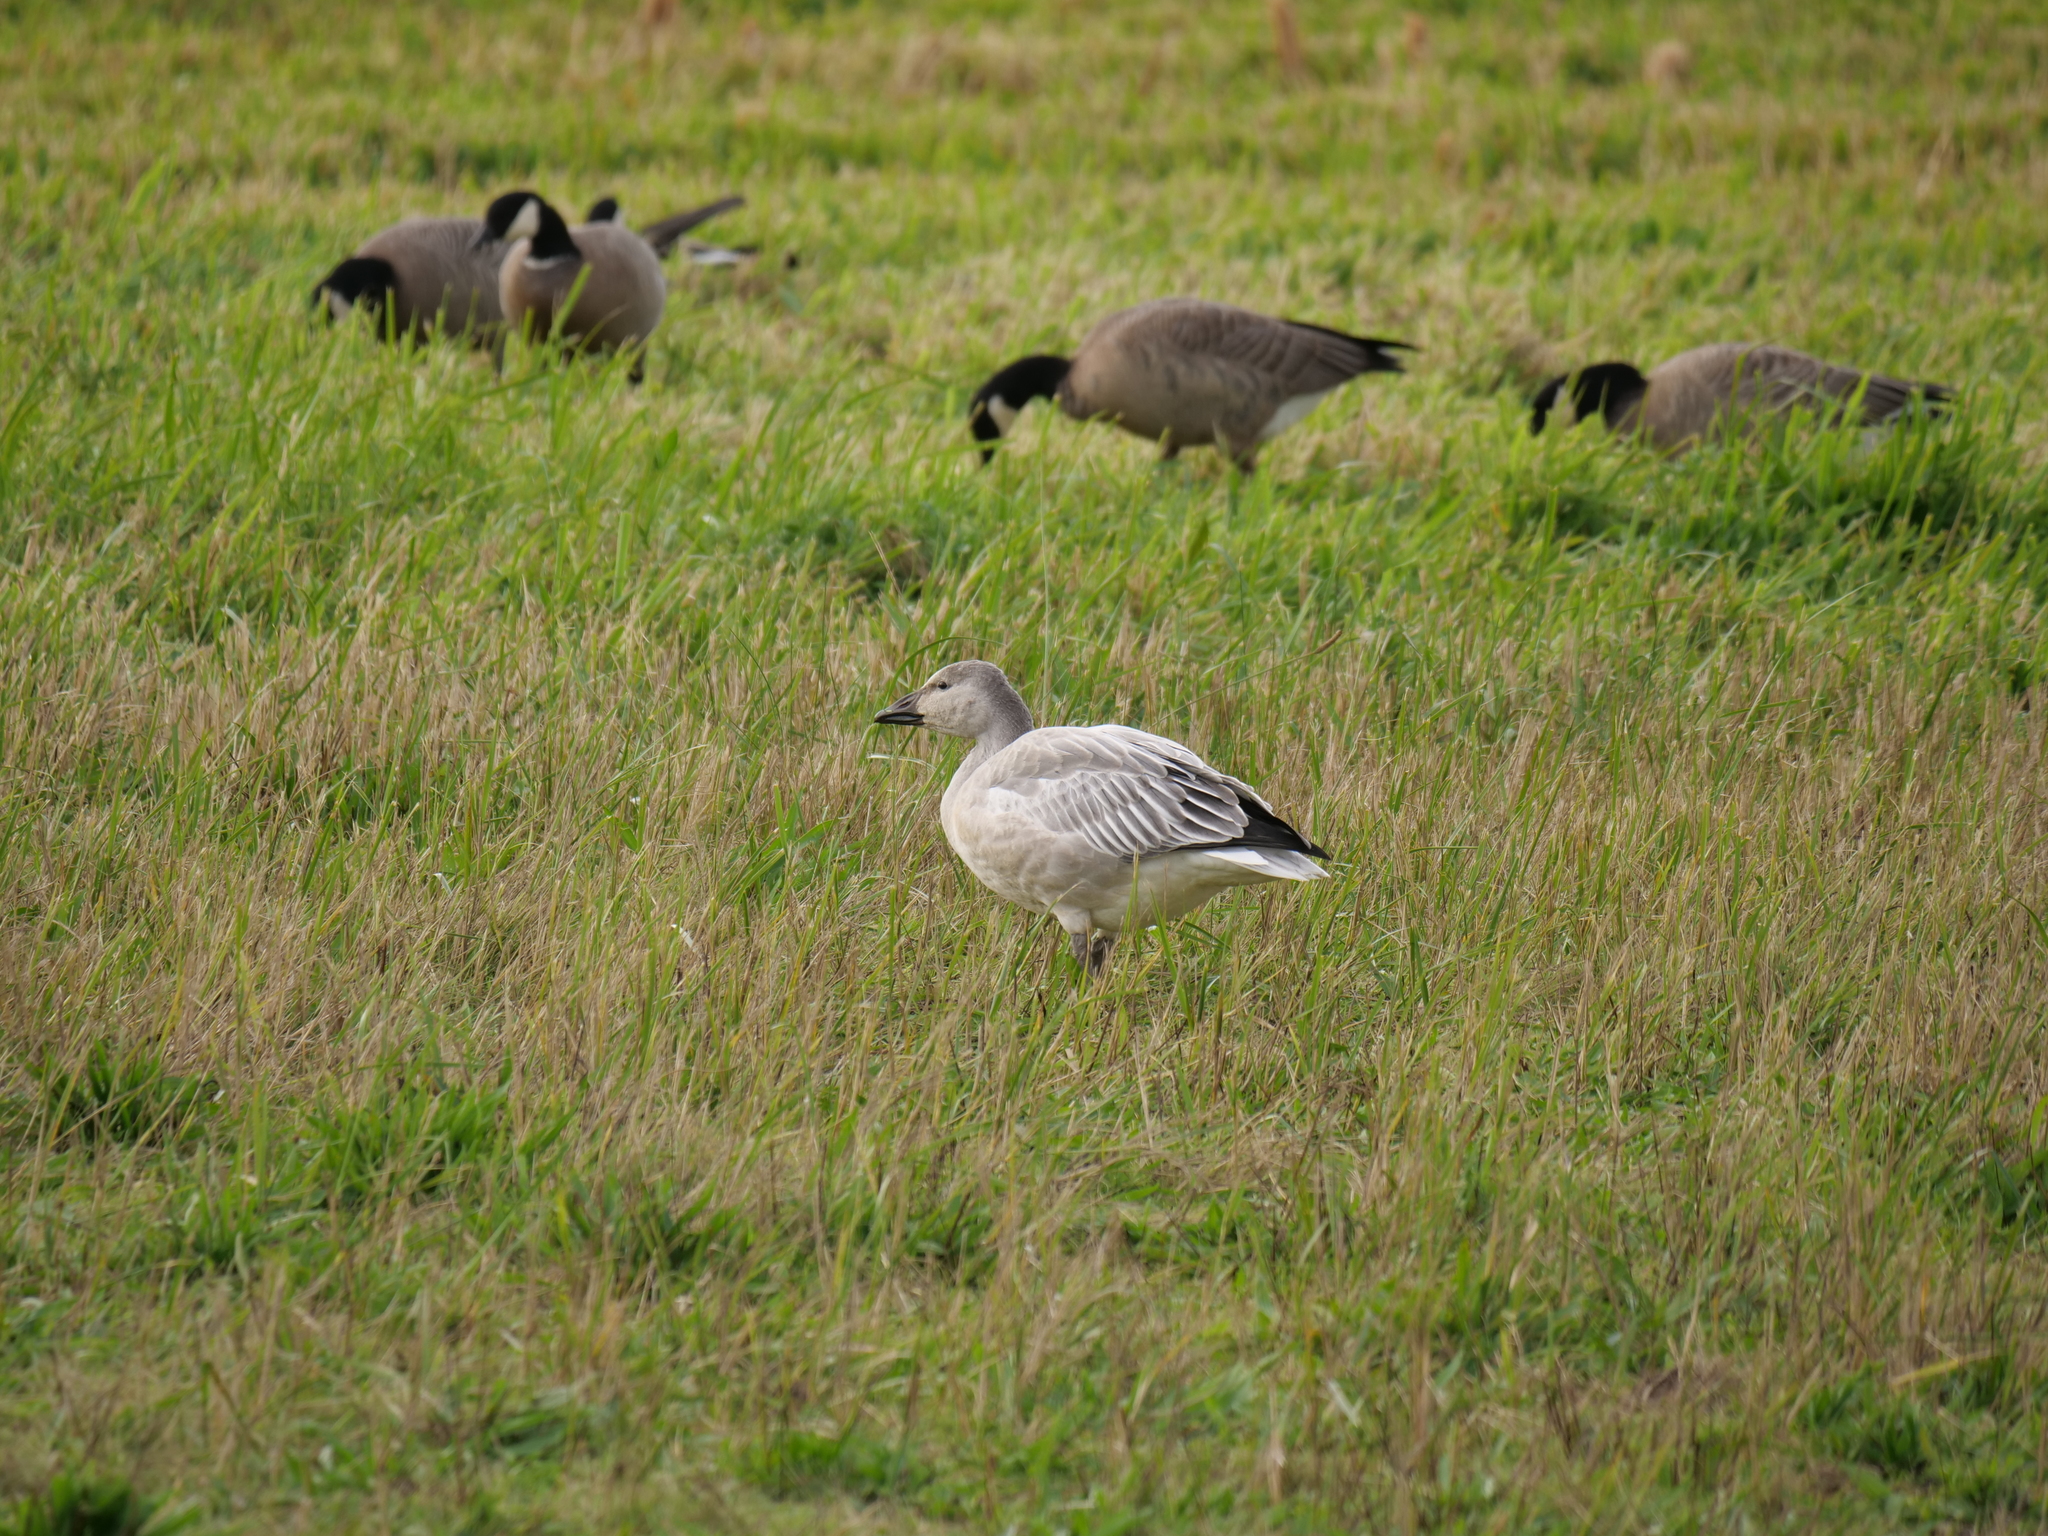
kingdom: Animalia
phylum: Chordata
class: Aves
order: Anseriformes
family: Anatidae
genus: Anser
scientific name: Anser caerulescens
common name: Snow goose
